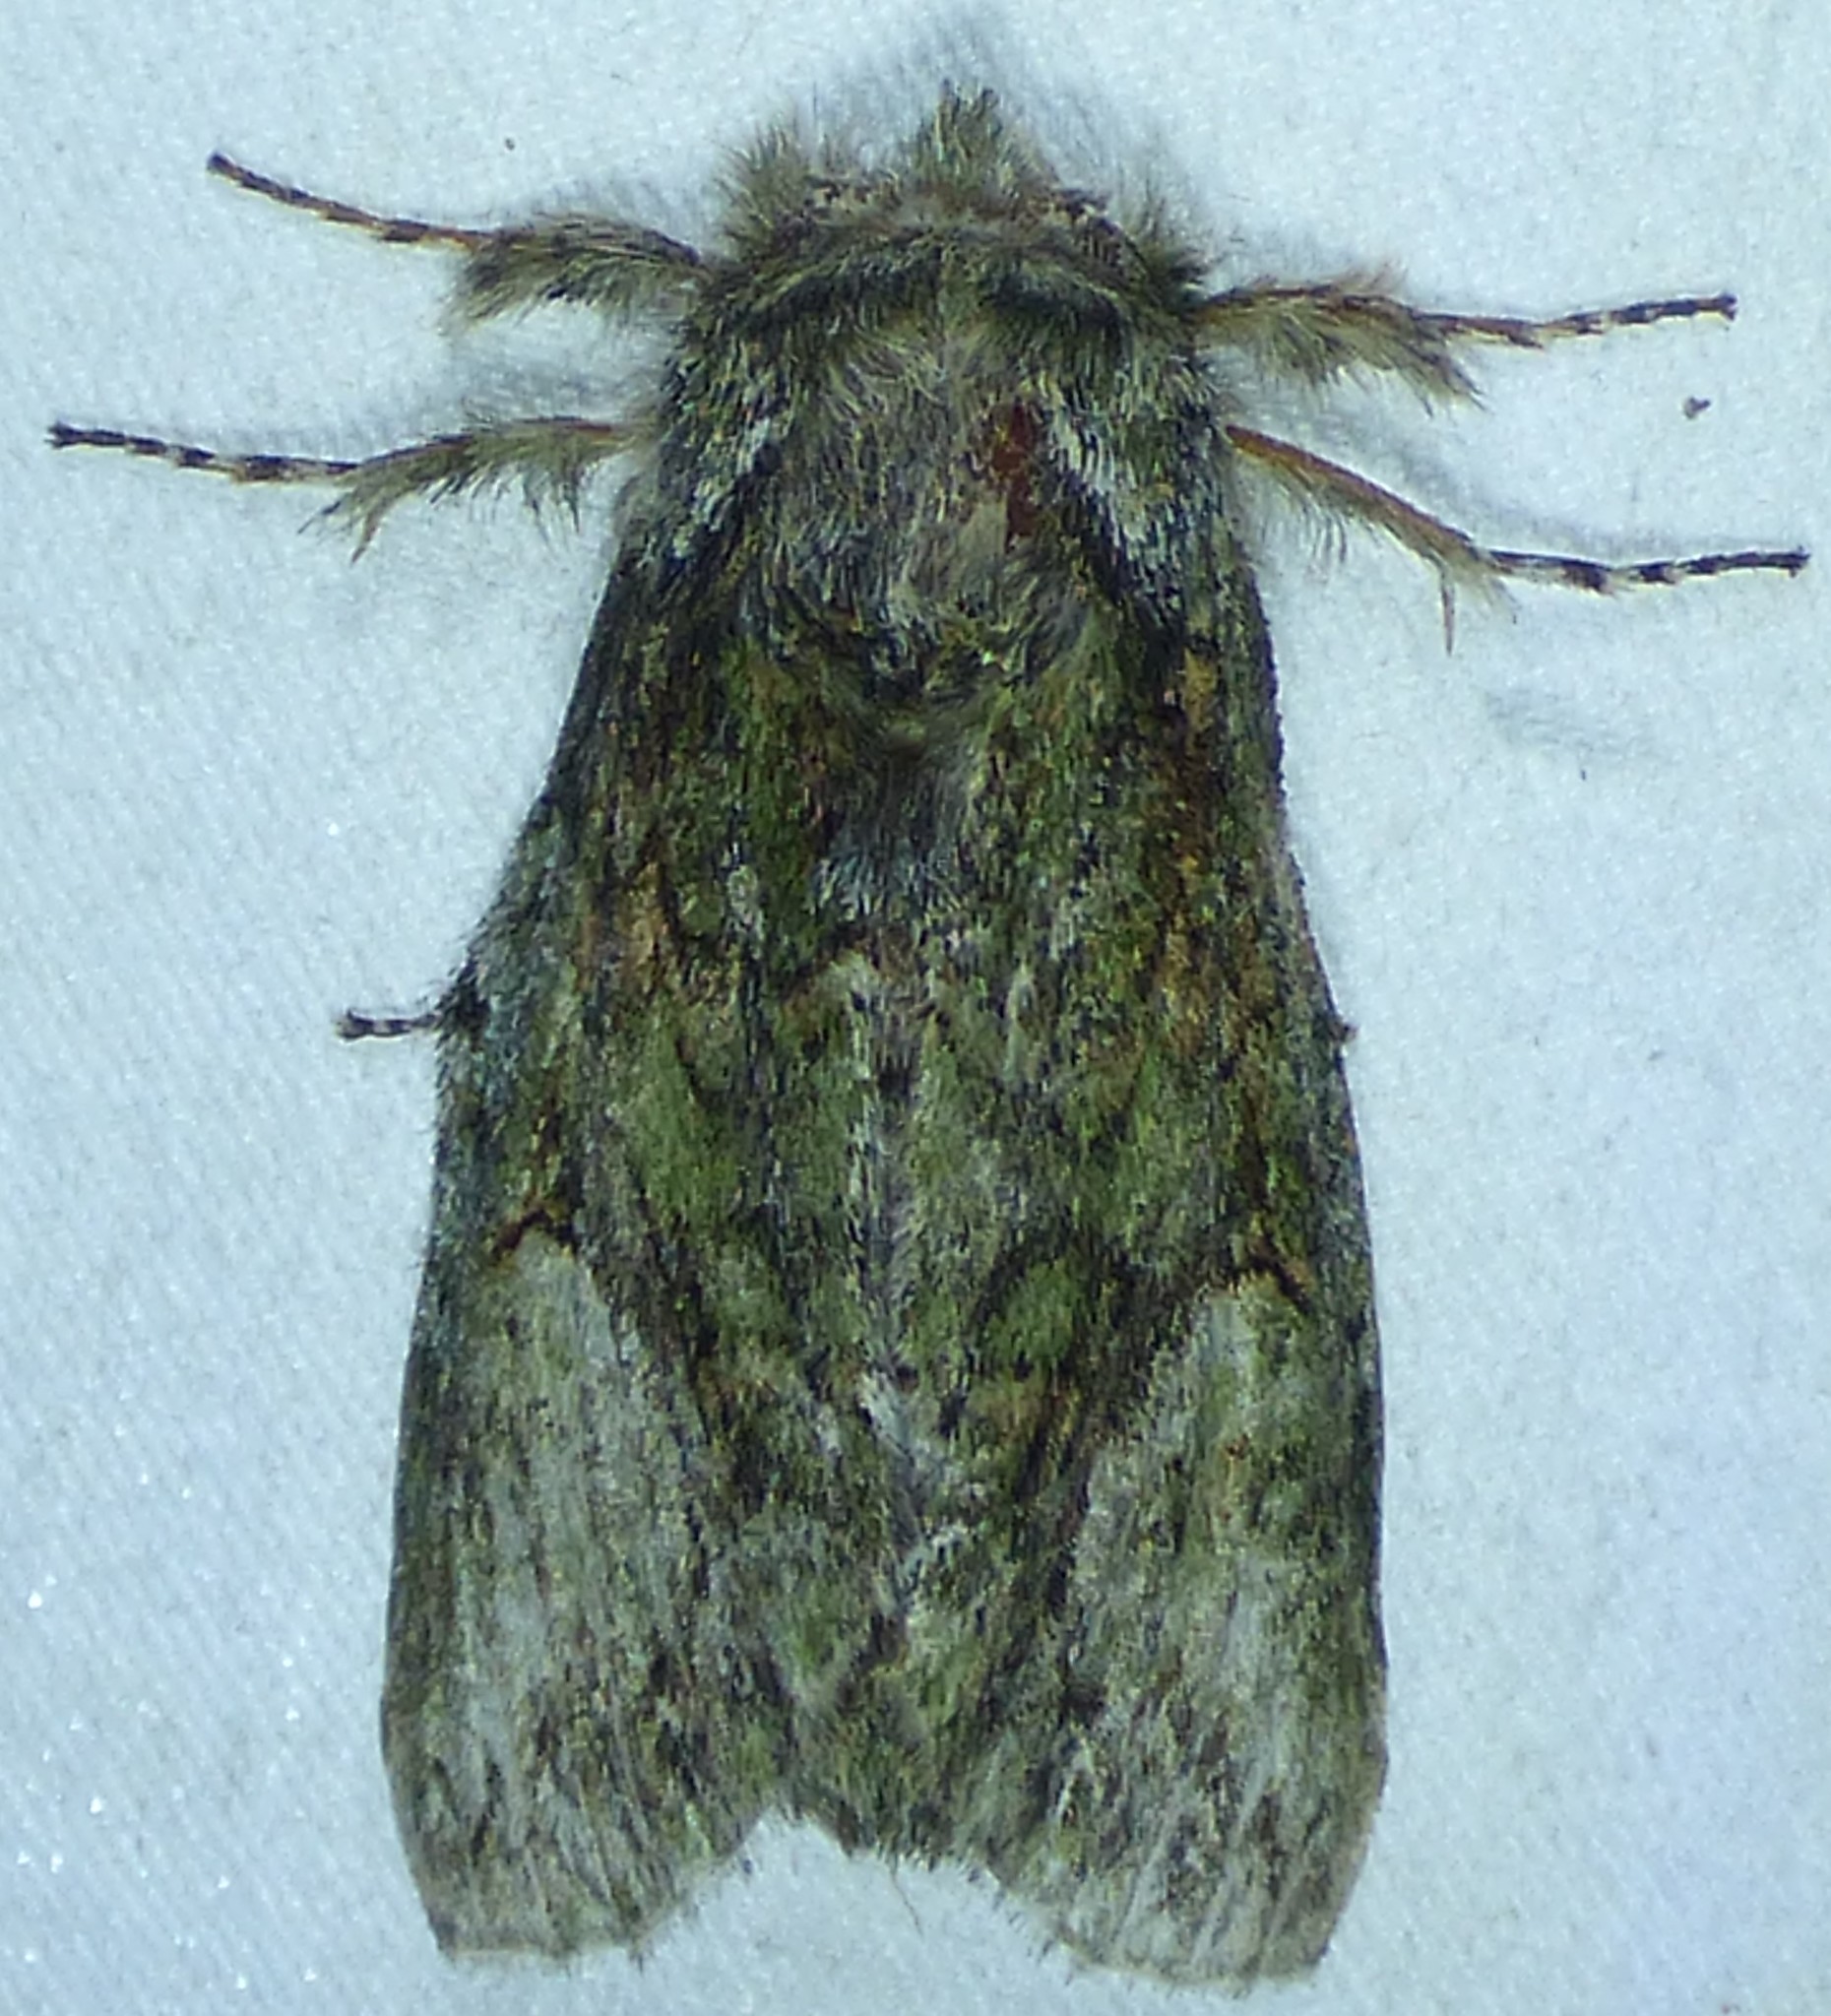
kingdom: Animalia
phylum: Arthropoda
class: Insecta
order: Lepidoptera
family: Notodontidae
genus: Heterocampa
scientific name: Heterocampa
